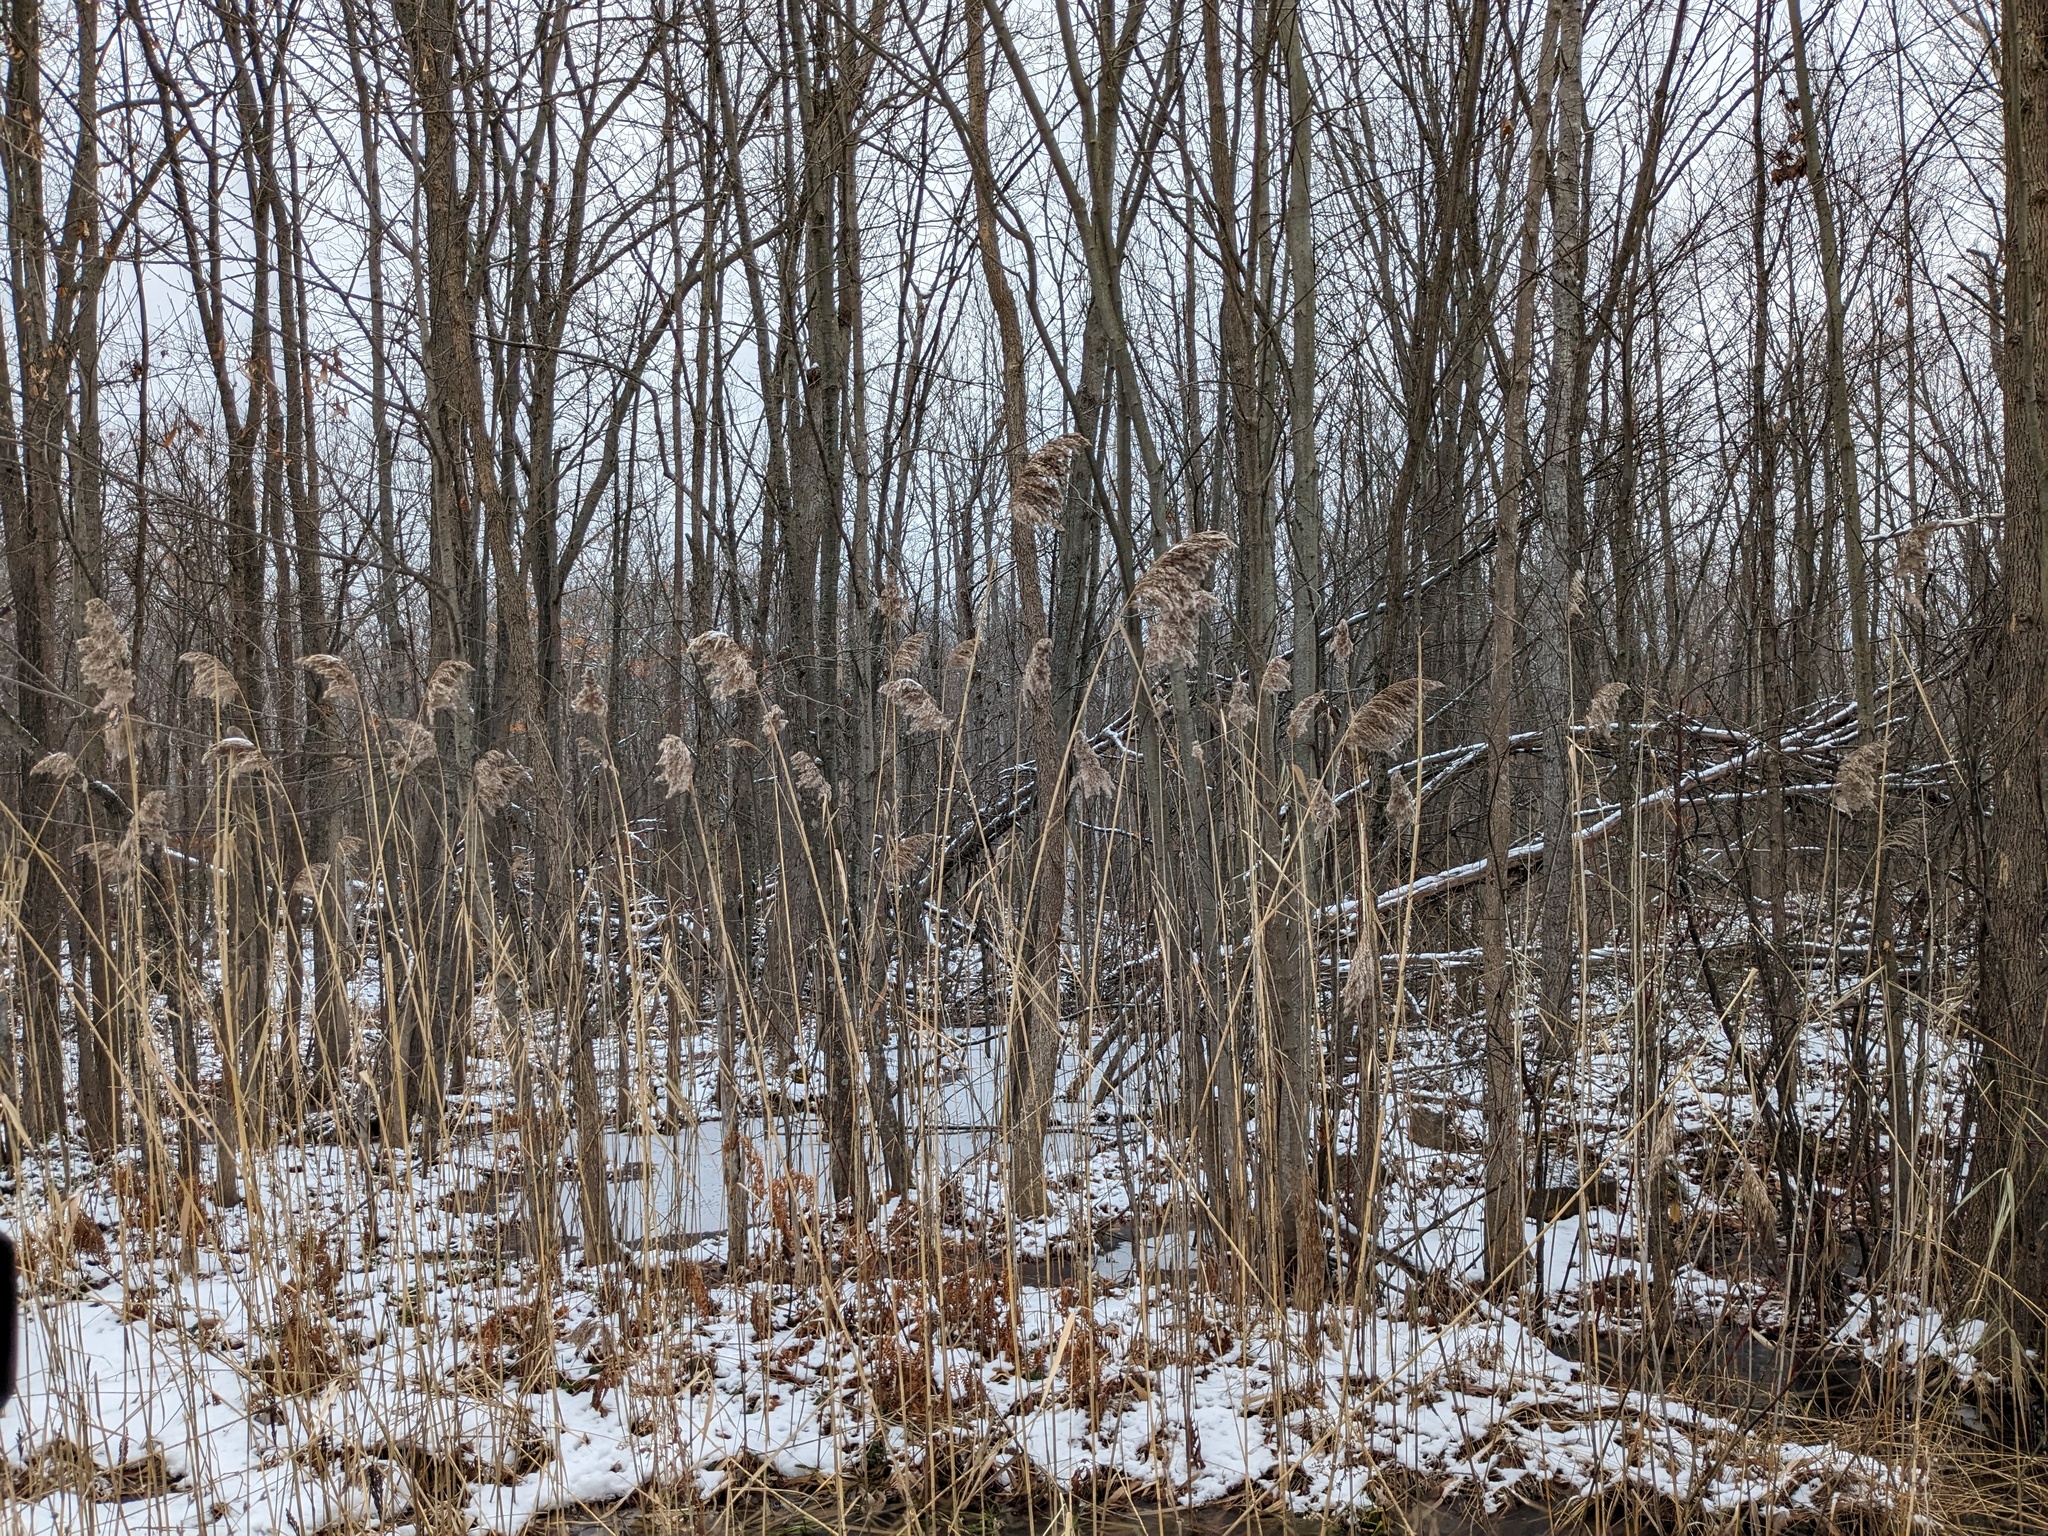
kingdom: Plantae
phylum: Tracheophyta
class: Liliopsida
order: Poales
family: Poaceae
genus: Phragmites
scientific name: Phragmites australis
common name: Common reed
